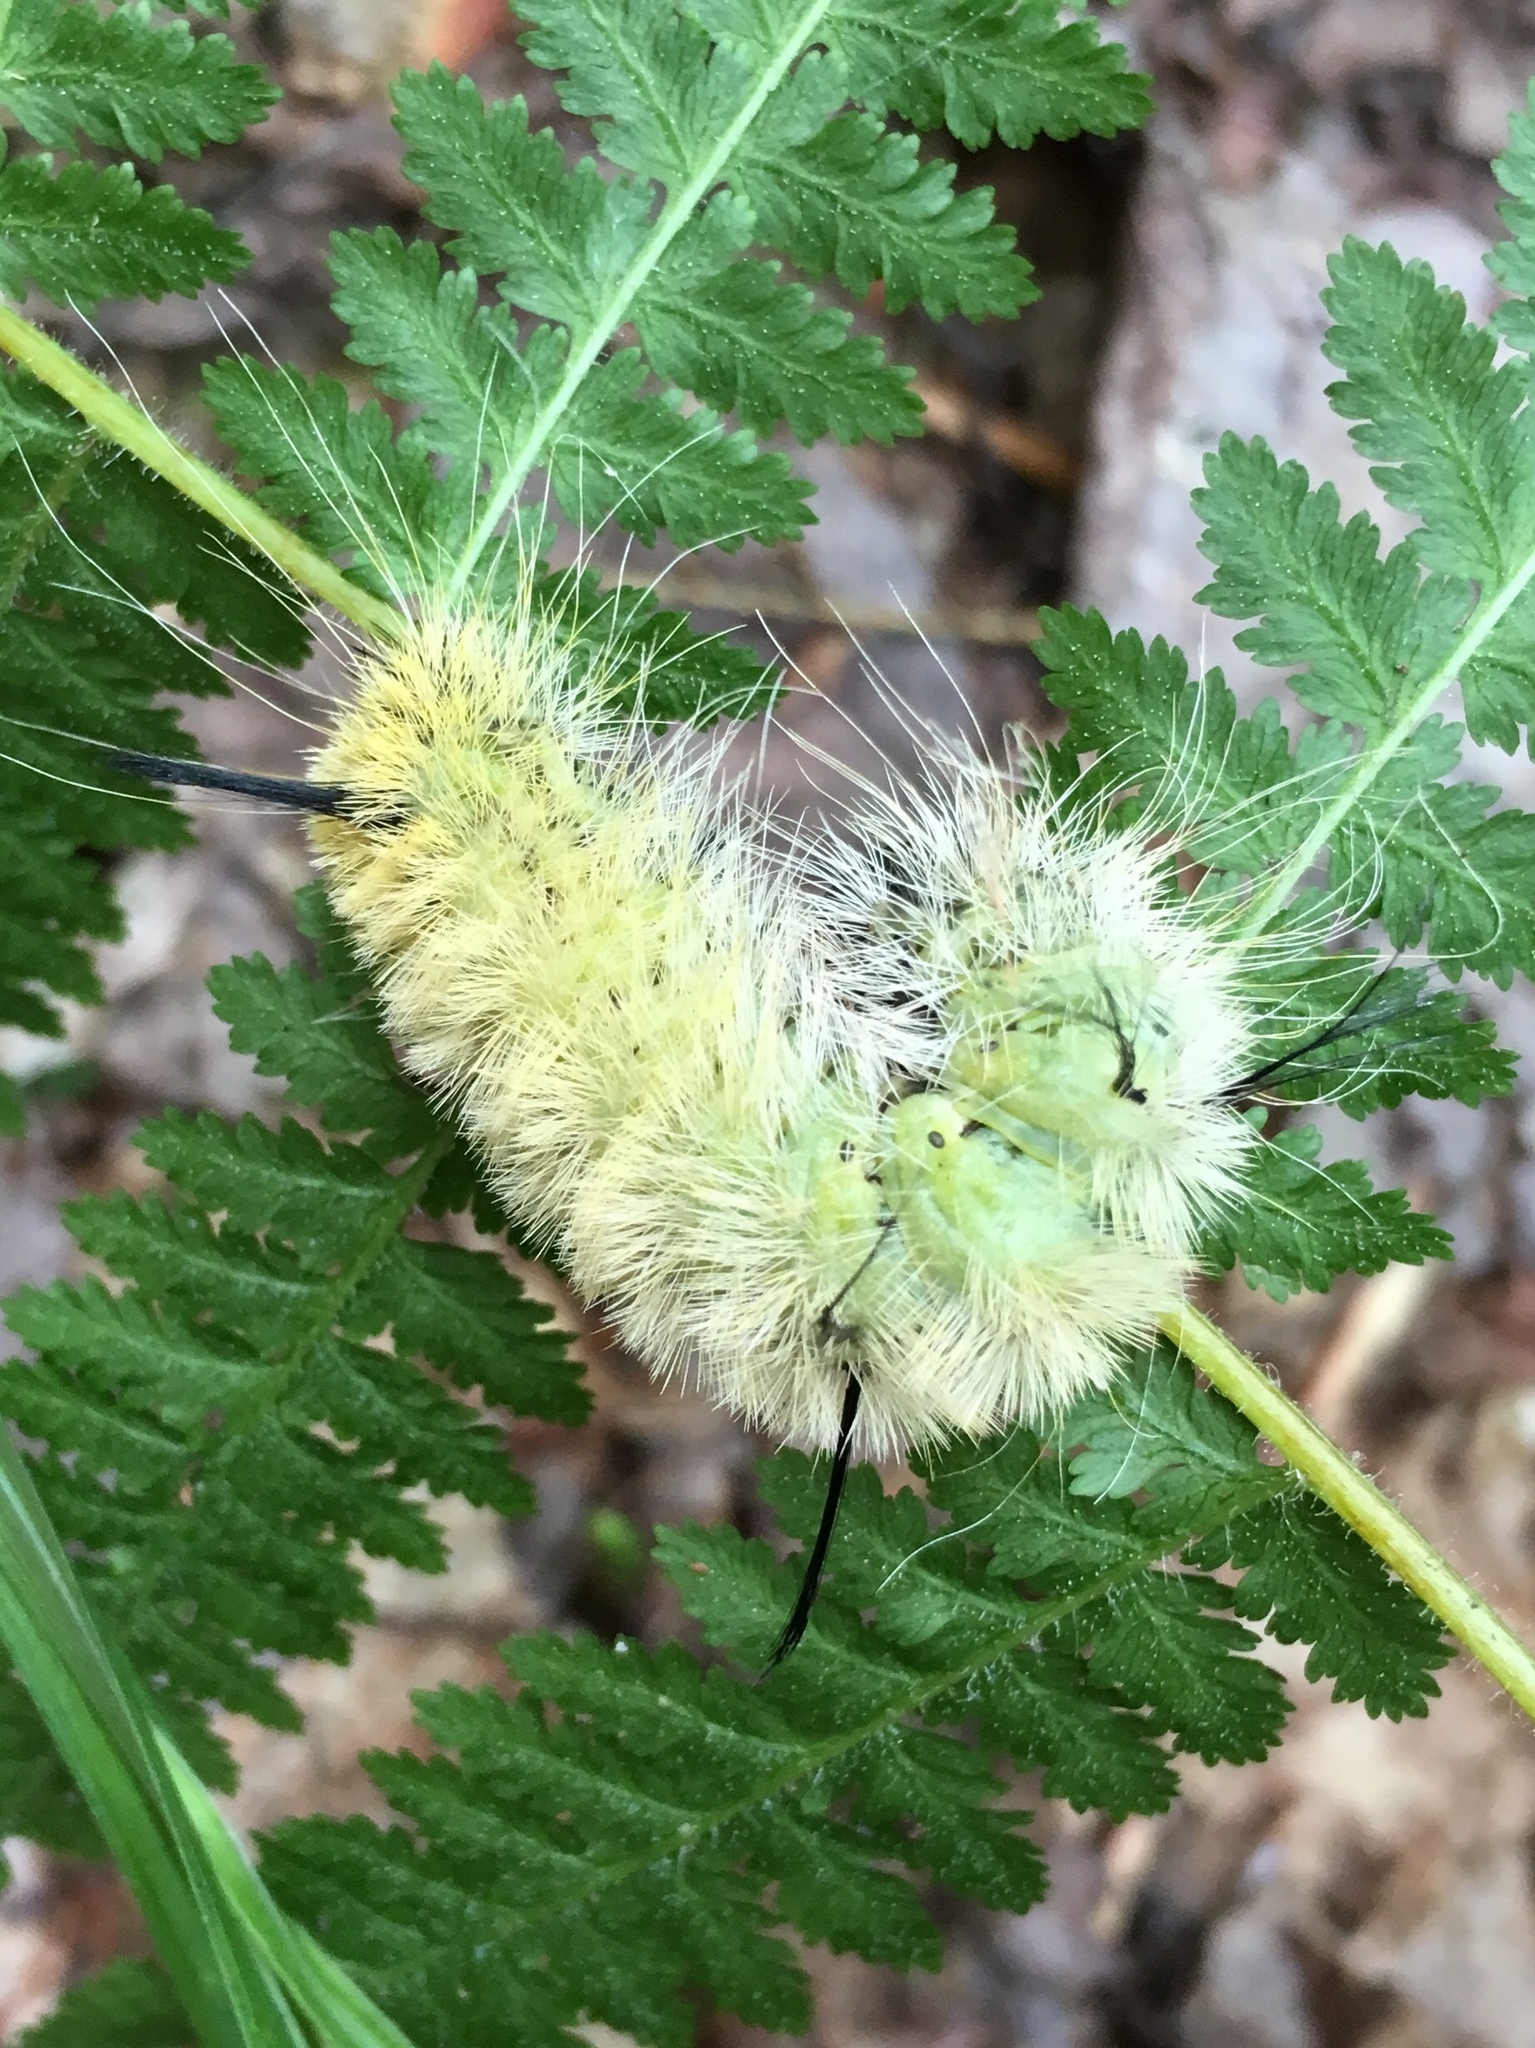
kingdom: Animalia
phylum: Arthropoda
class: Insecta
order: Lepidoptera
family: Noctuidae
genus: Acronicta
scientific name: Acronicta americana
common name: American dagger
